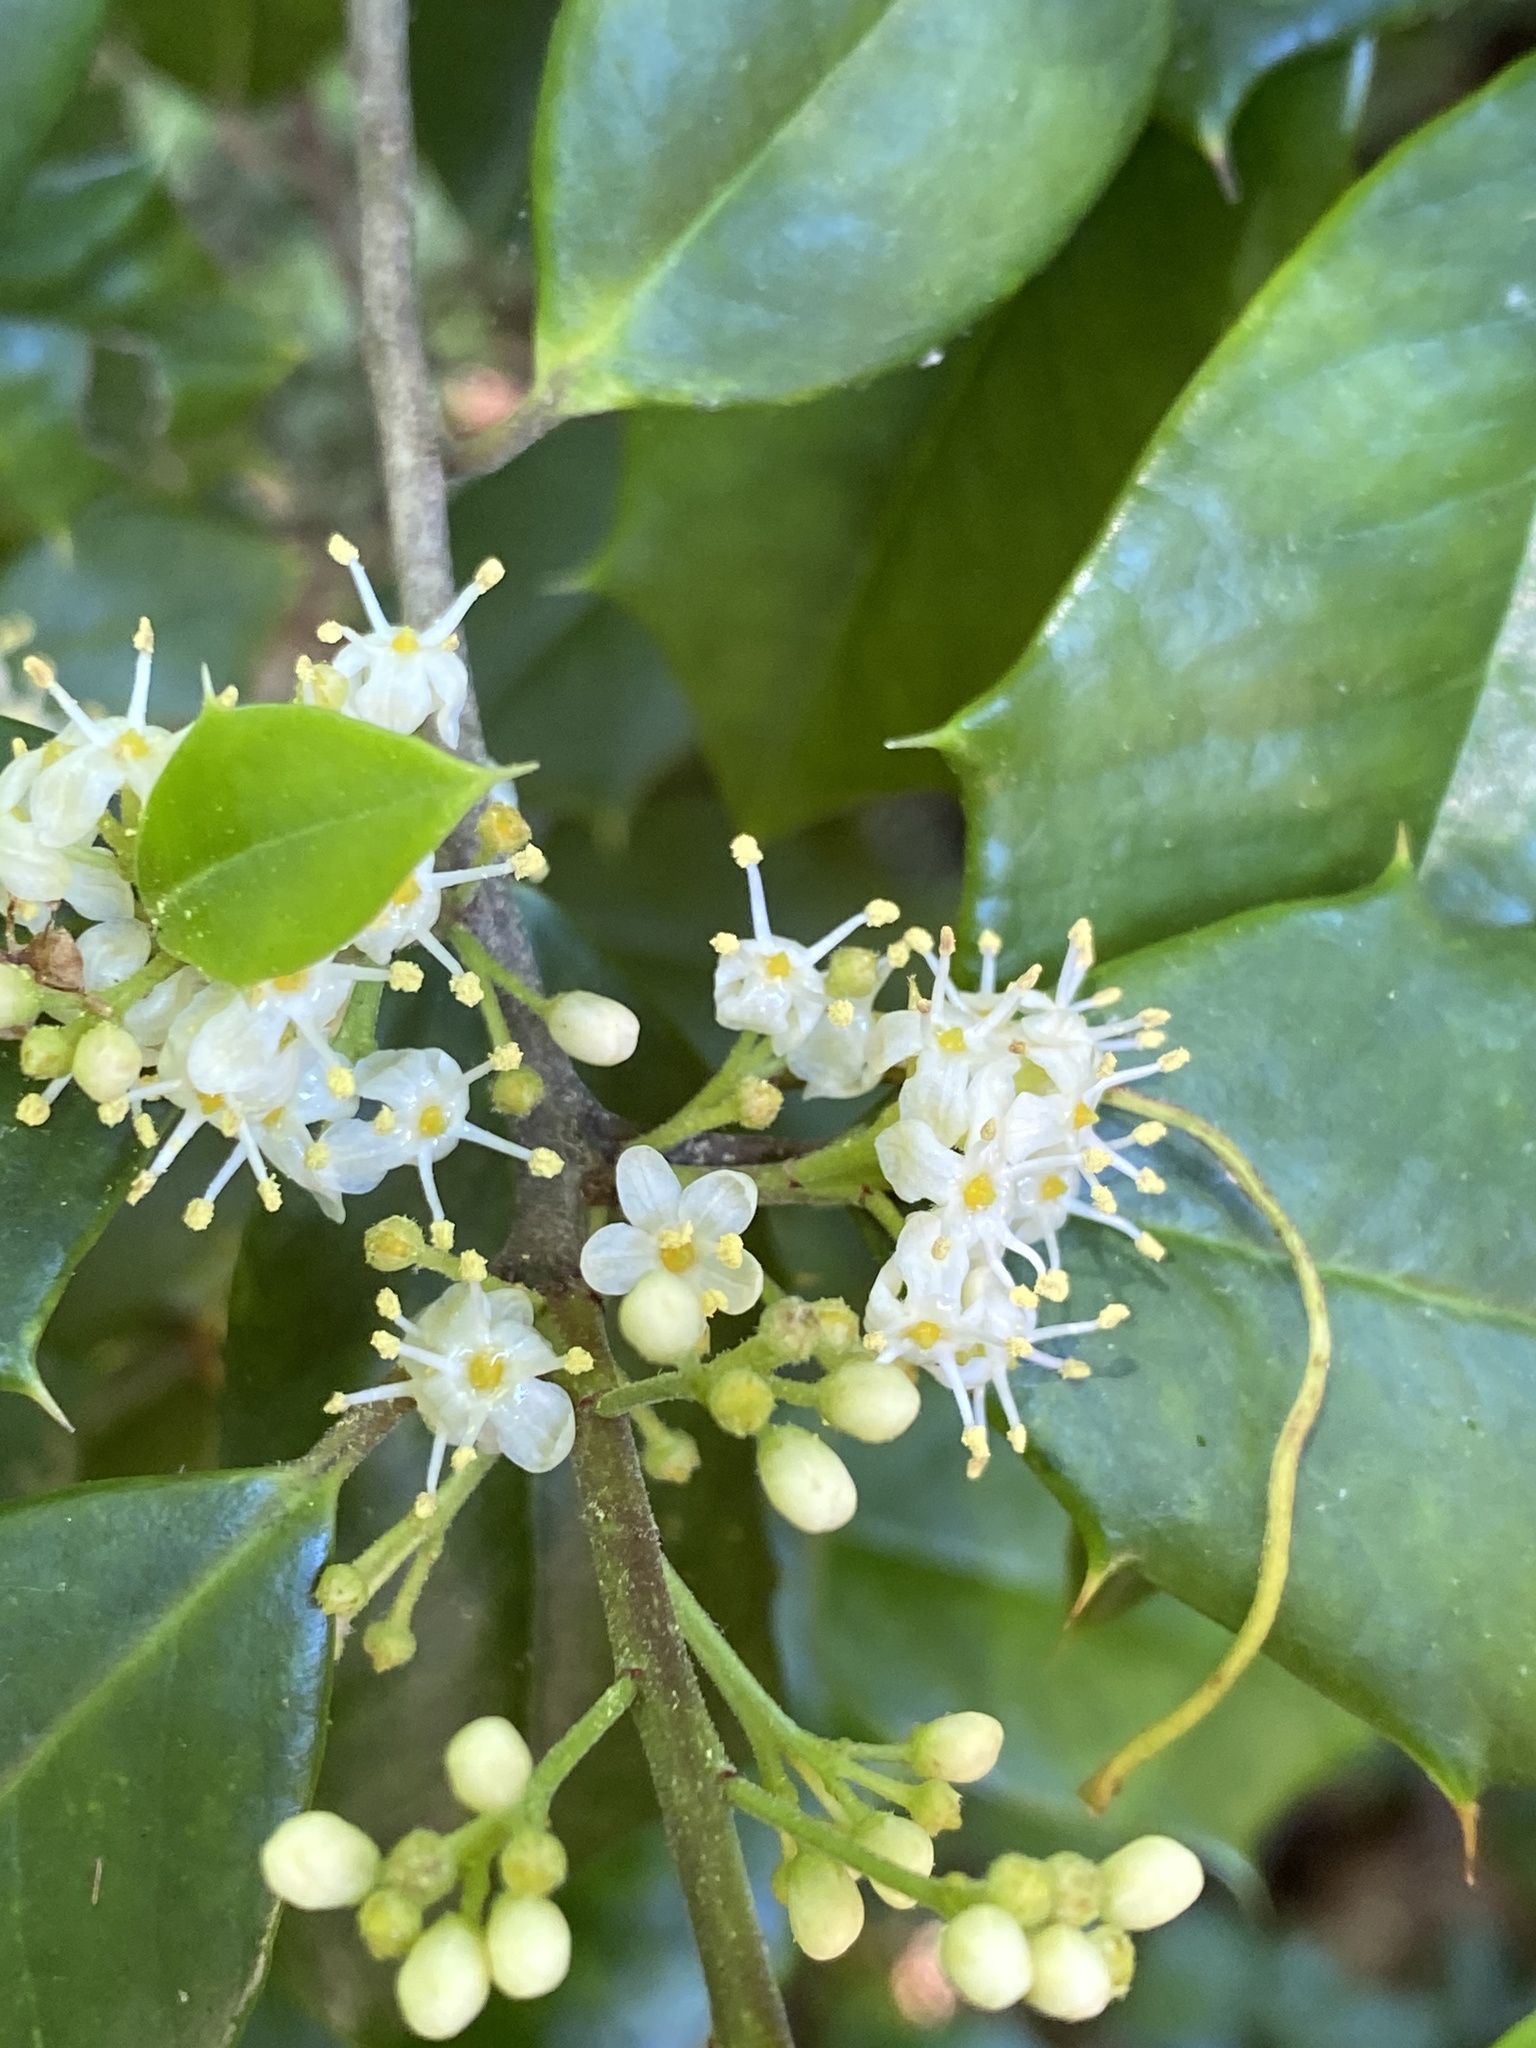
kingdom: Plantae
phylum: Tracheophyta
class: Magnoliopsida
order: Aquifoliales
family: Aquifoliaceae
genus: Ilex
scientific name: Ilex opaca
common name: American holly
